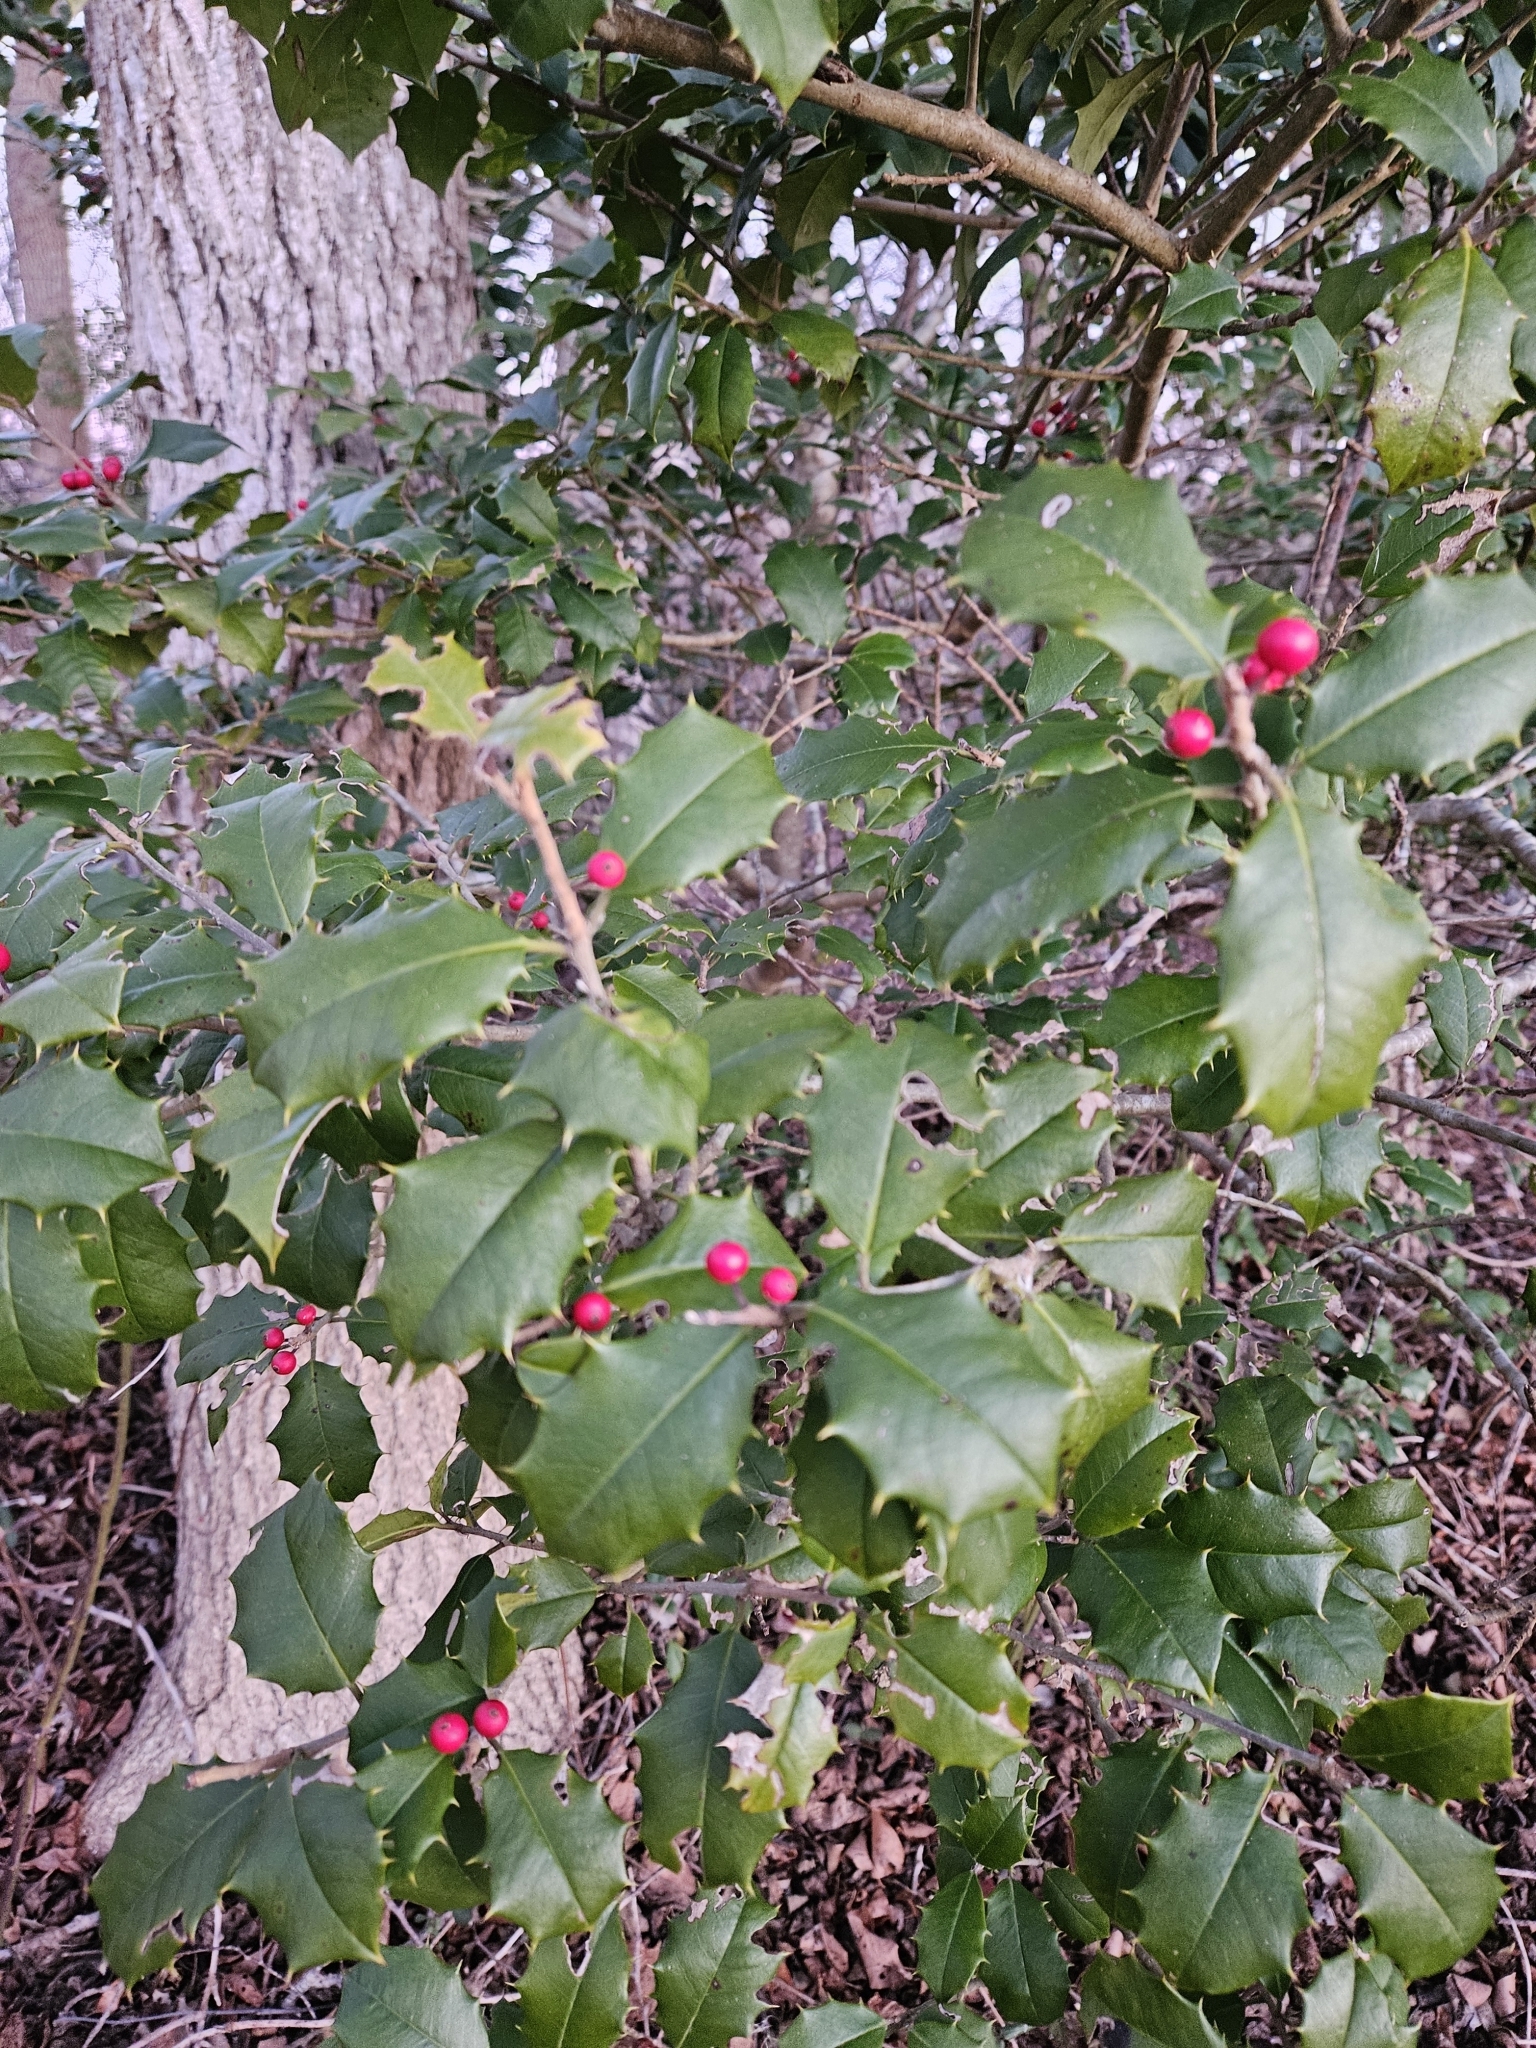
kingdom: Plantae
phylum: Tracheophyta
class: Magnoliopsida
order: Aquifoliales
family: Aquifoliaceae
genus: Ilex
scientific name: Ilex opaca
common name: American holly
